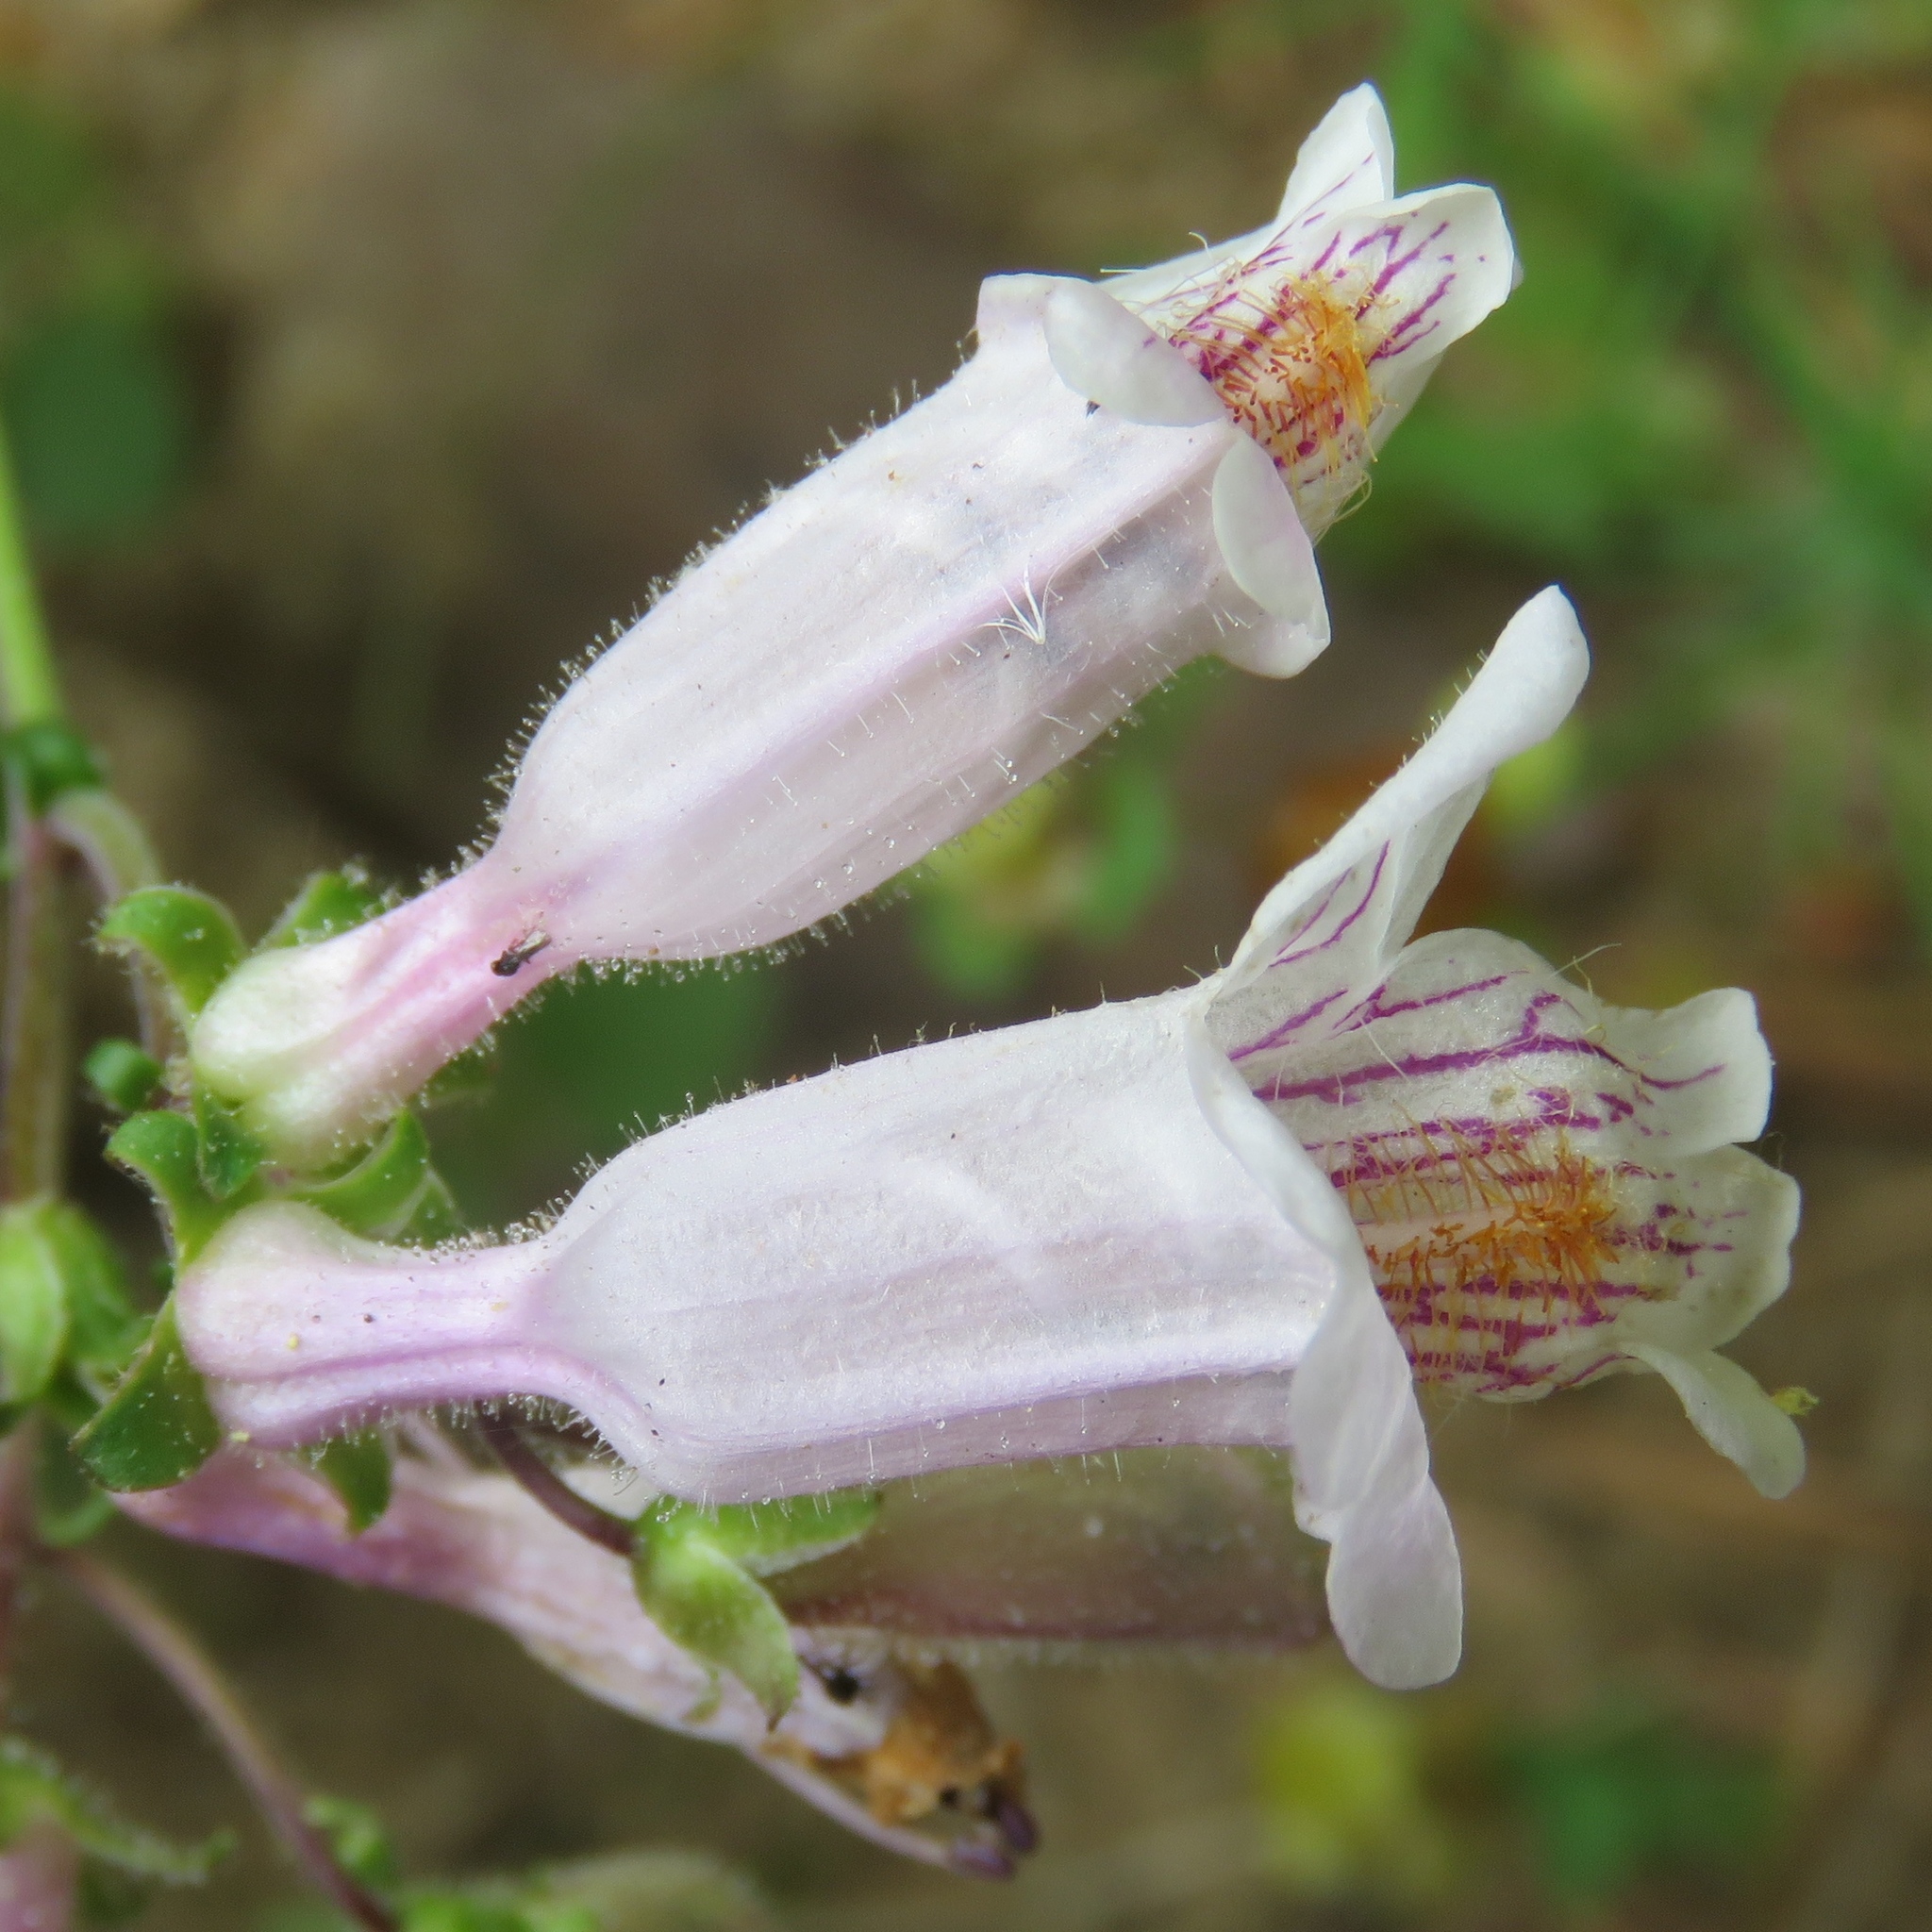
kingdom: Plantae
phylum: Tracheophyta
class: Magnoliopsida
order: Lamiales
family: Plantaginaceae
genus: Penstemon
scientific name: Penstemon laxiflorus
